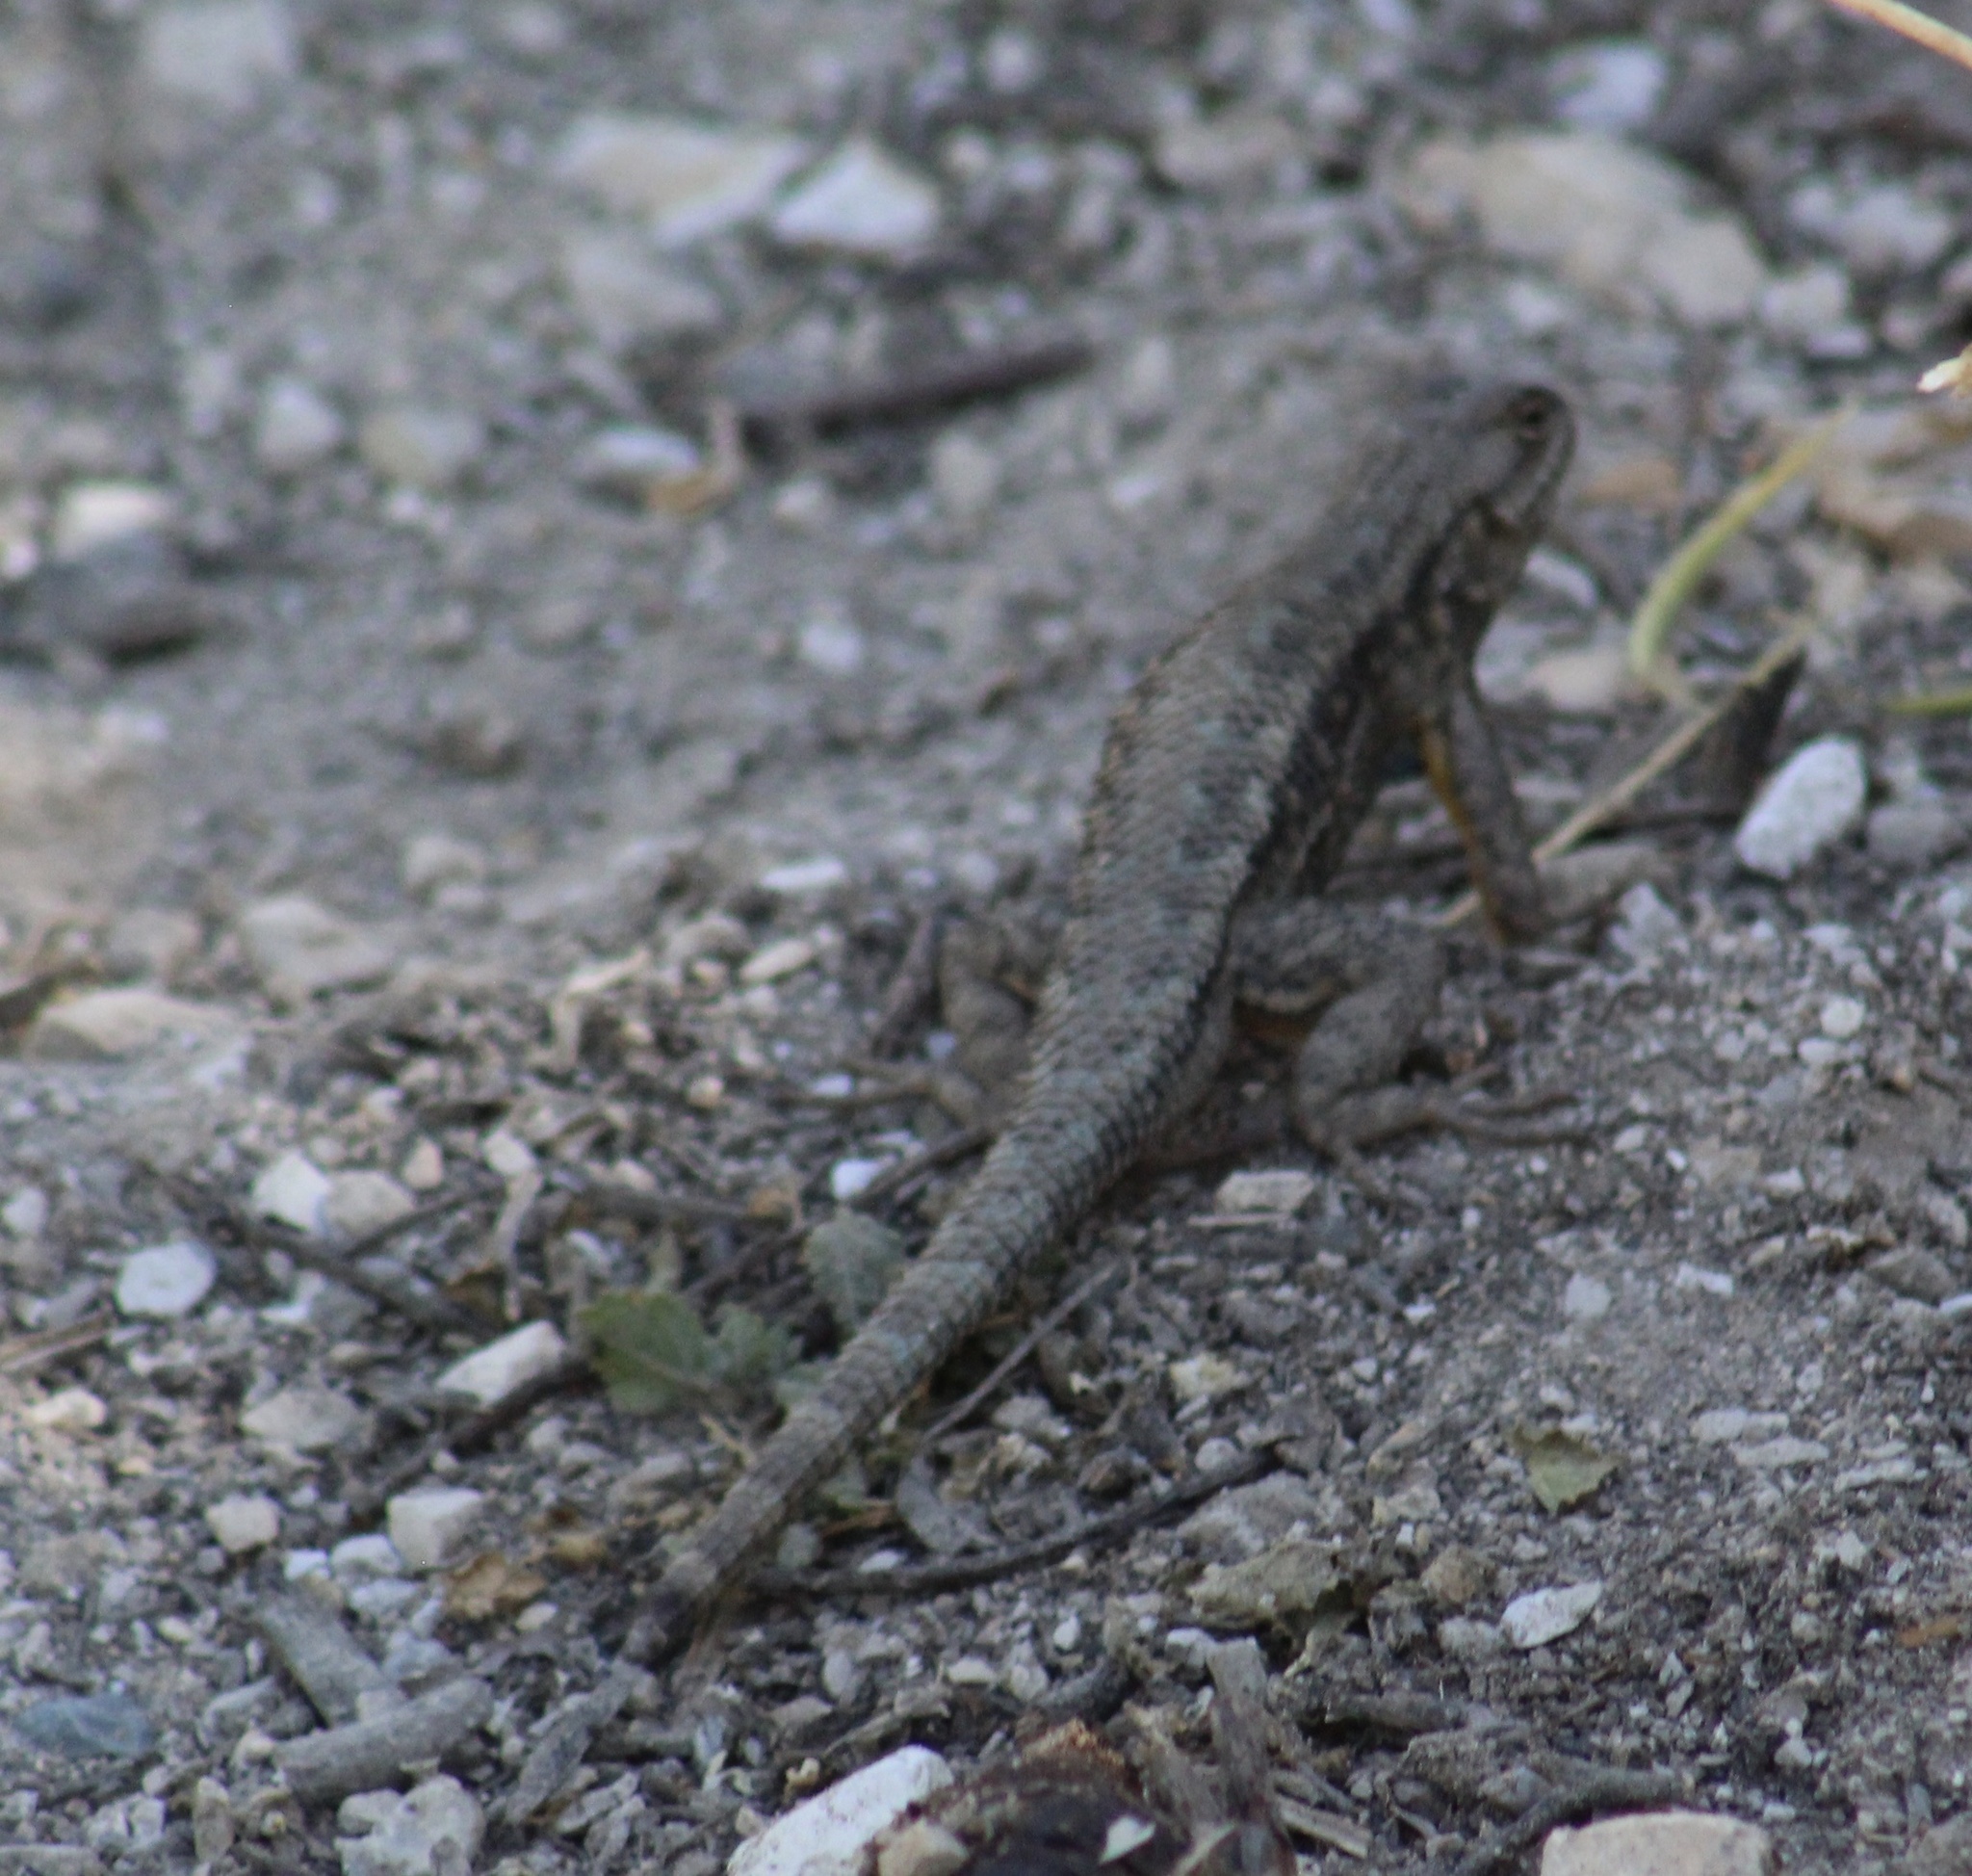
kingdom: Animalia
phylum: Chordata
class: Squamata
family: Phrynosomatidae
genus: Sceloporus
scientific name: Sceloporus occidentalis
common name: Western fence lizard
